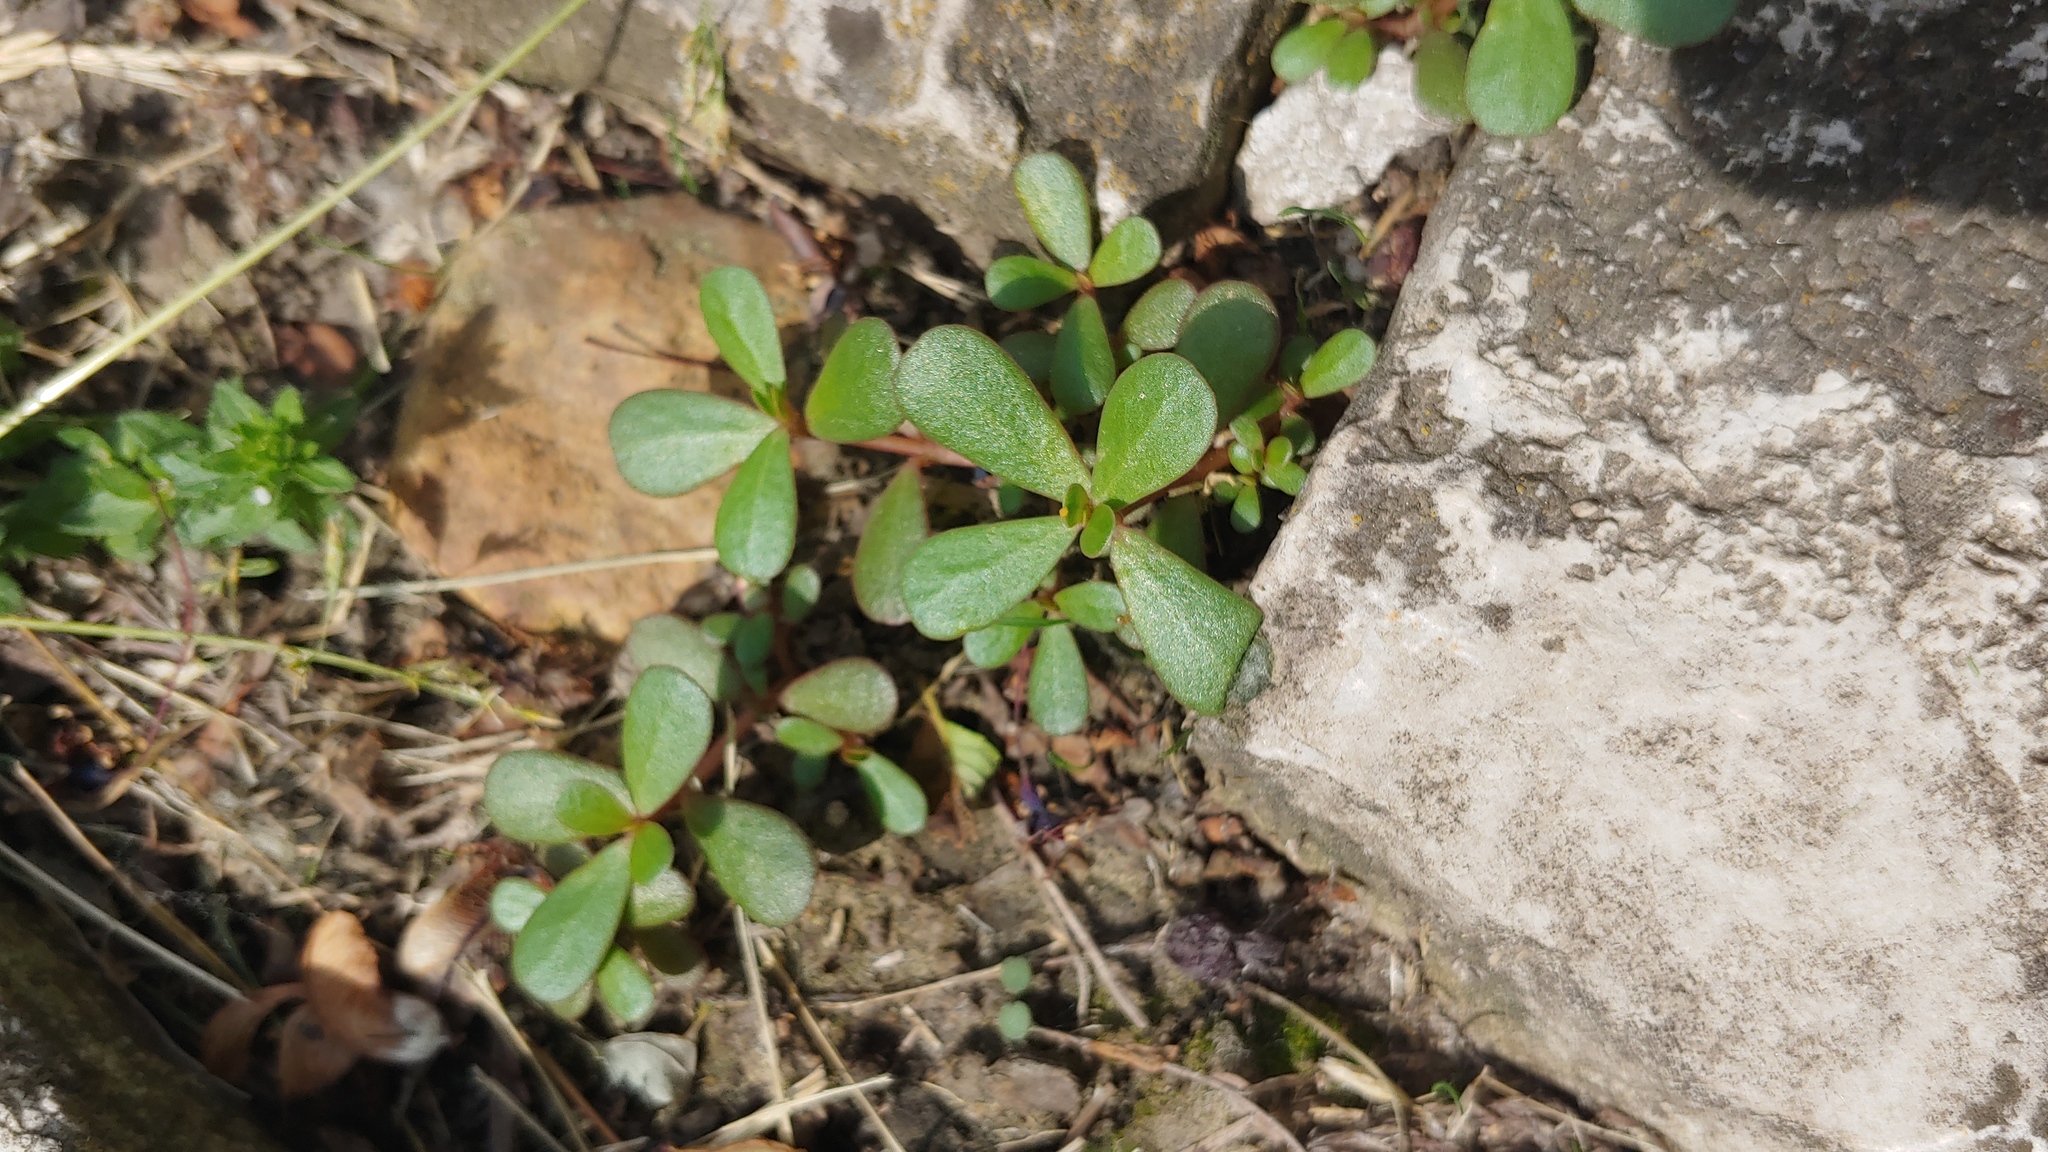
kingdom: Plantae
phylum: Tracheophyta
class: Magnoliopsida
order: Caryophyllales
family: Portulacaceae
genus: Portulaca
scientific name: Portulaca oleracea
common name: Common purslane
